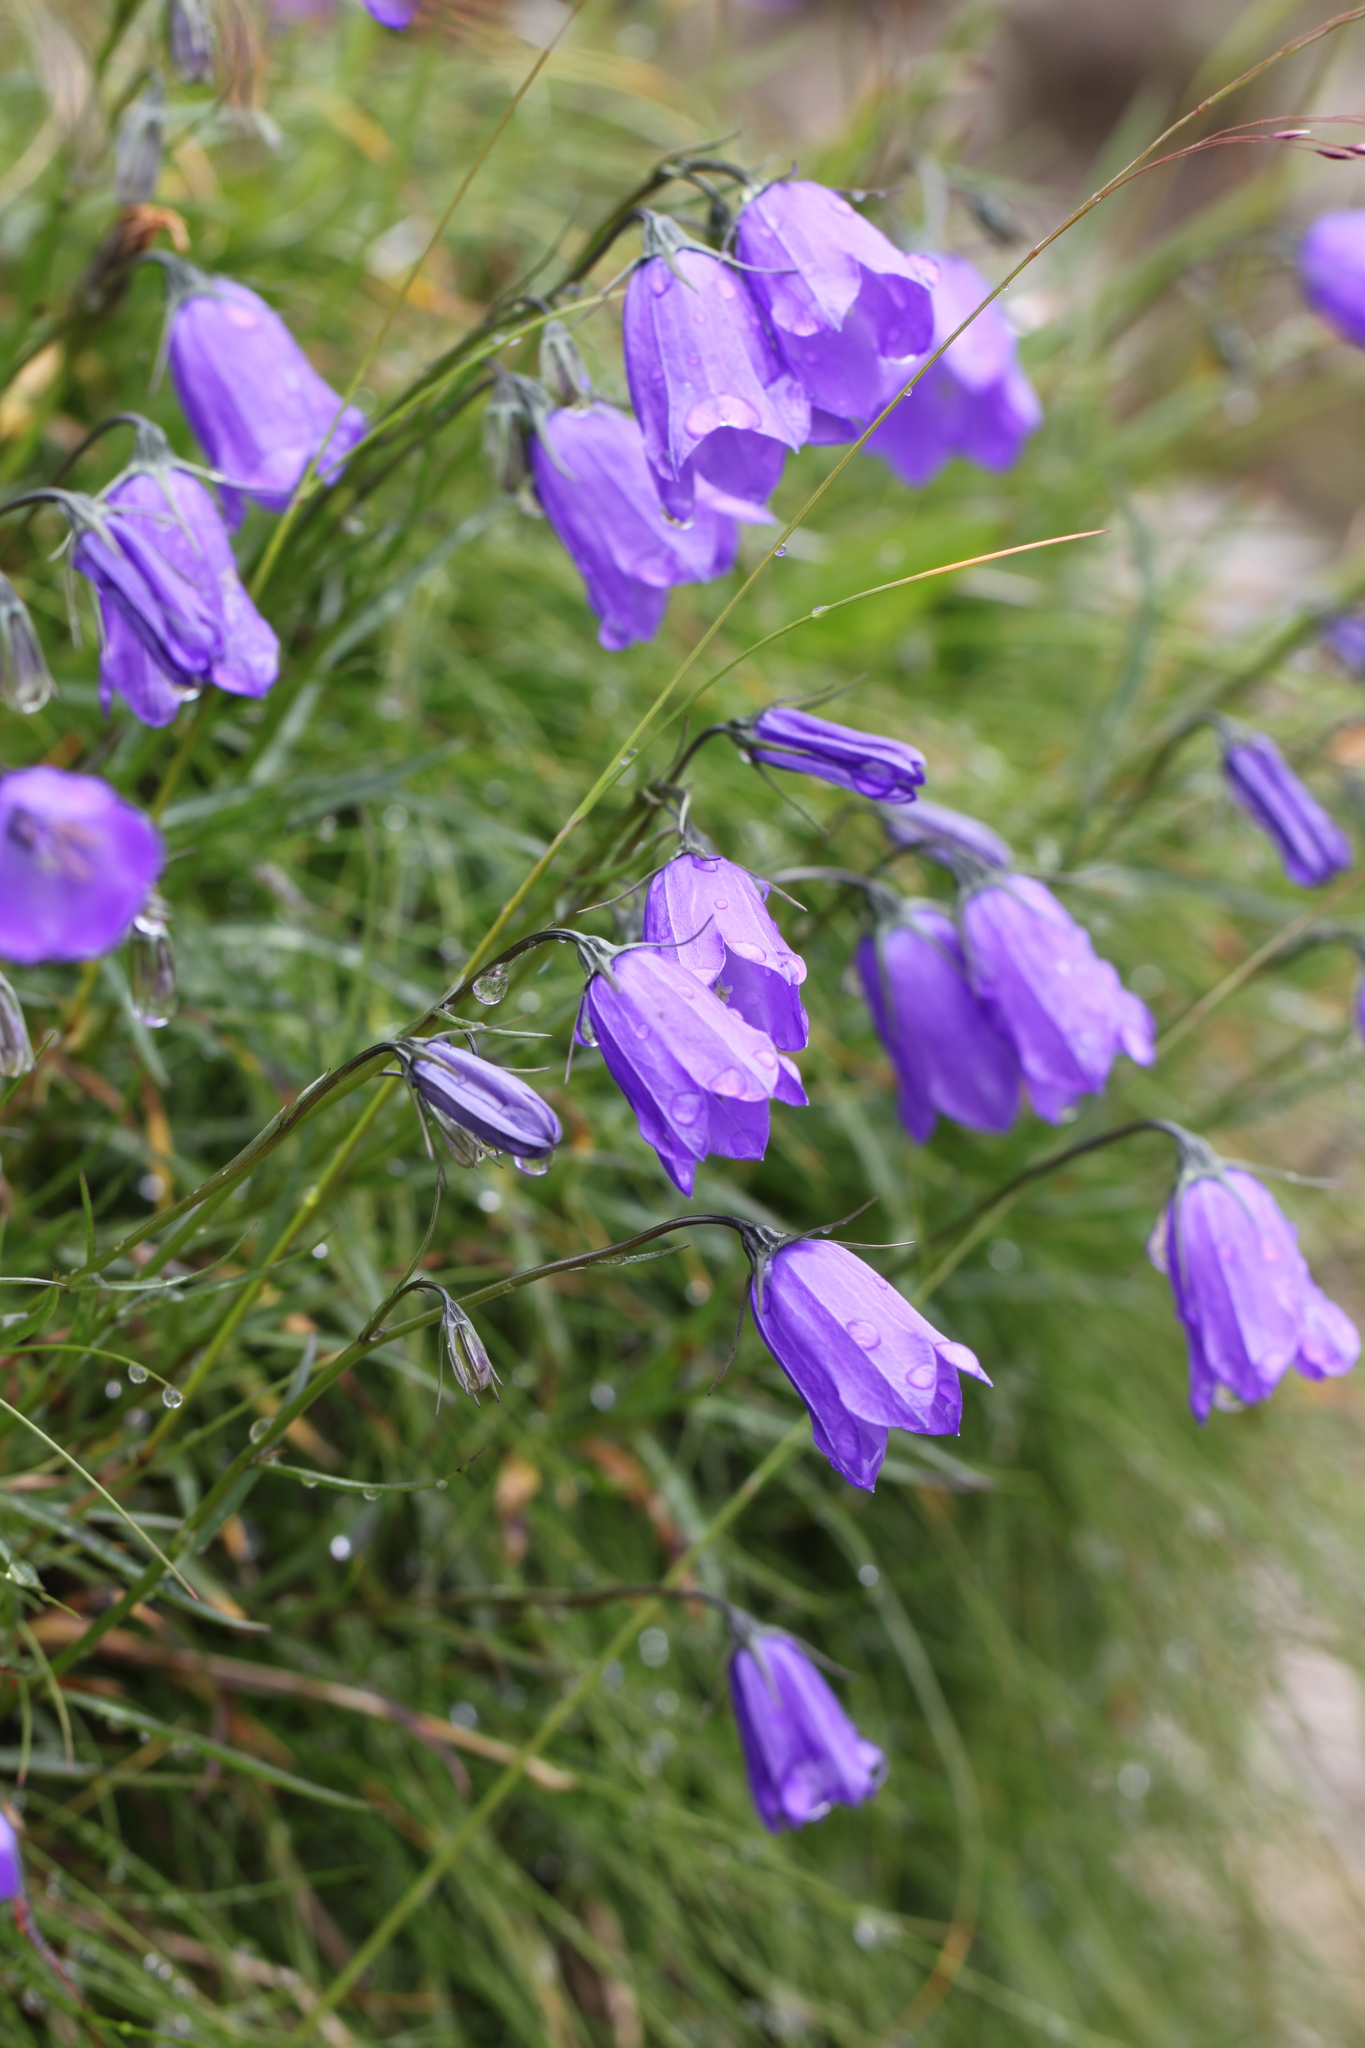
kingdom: Plantae
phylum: Tracheophyta
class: Magnoliopsida
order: Asterales
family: Campanulaceae
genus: Campanula
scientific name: Campanula rotundifolia
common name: Harebell
